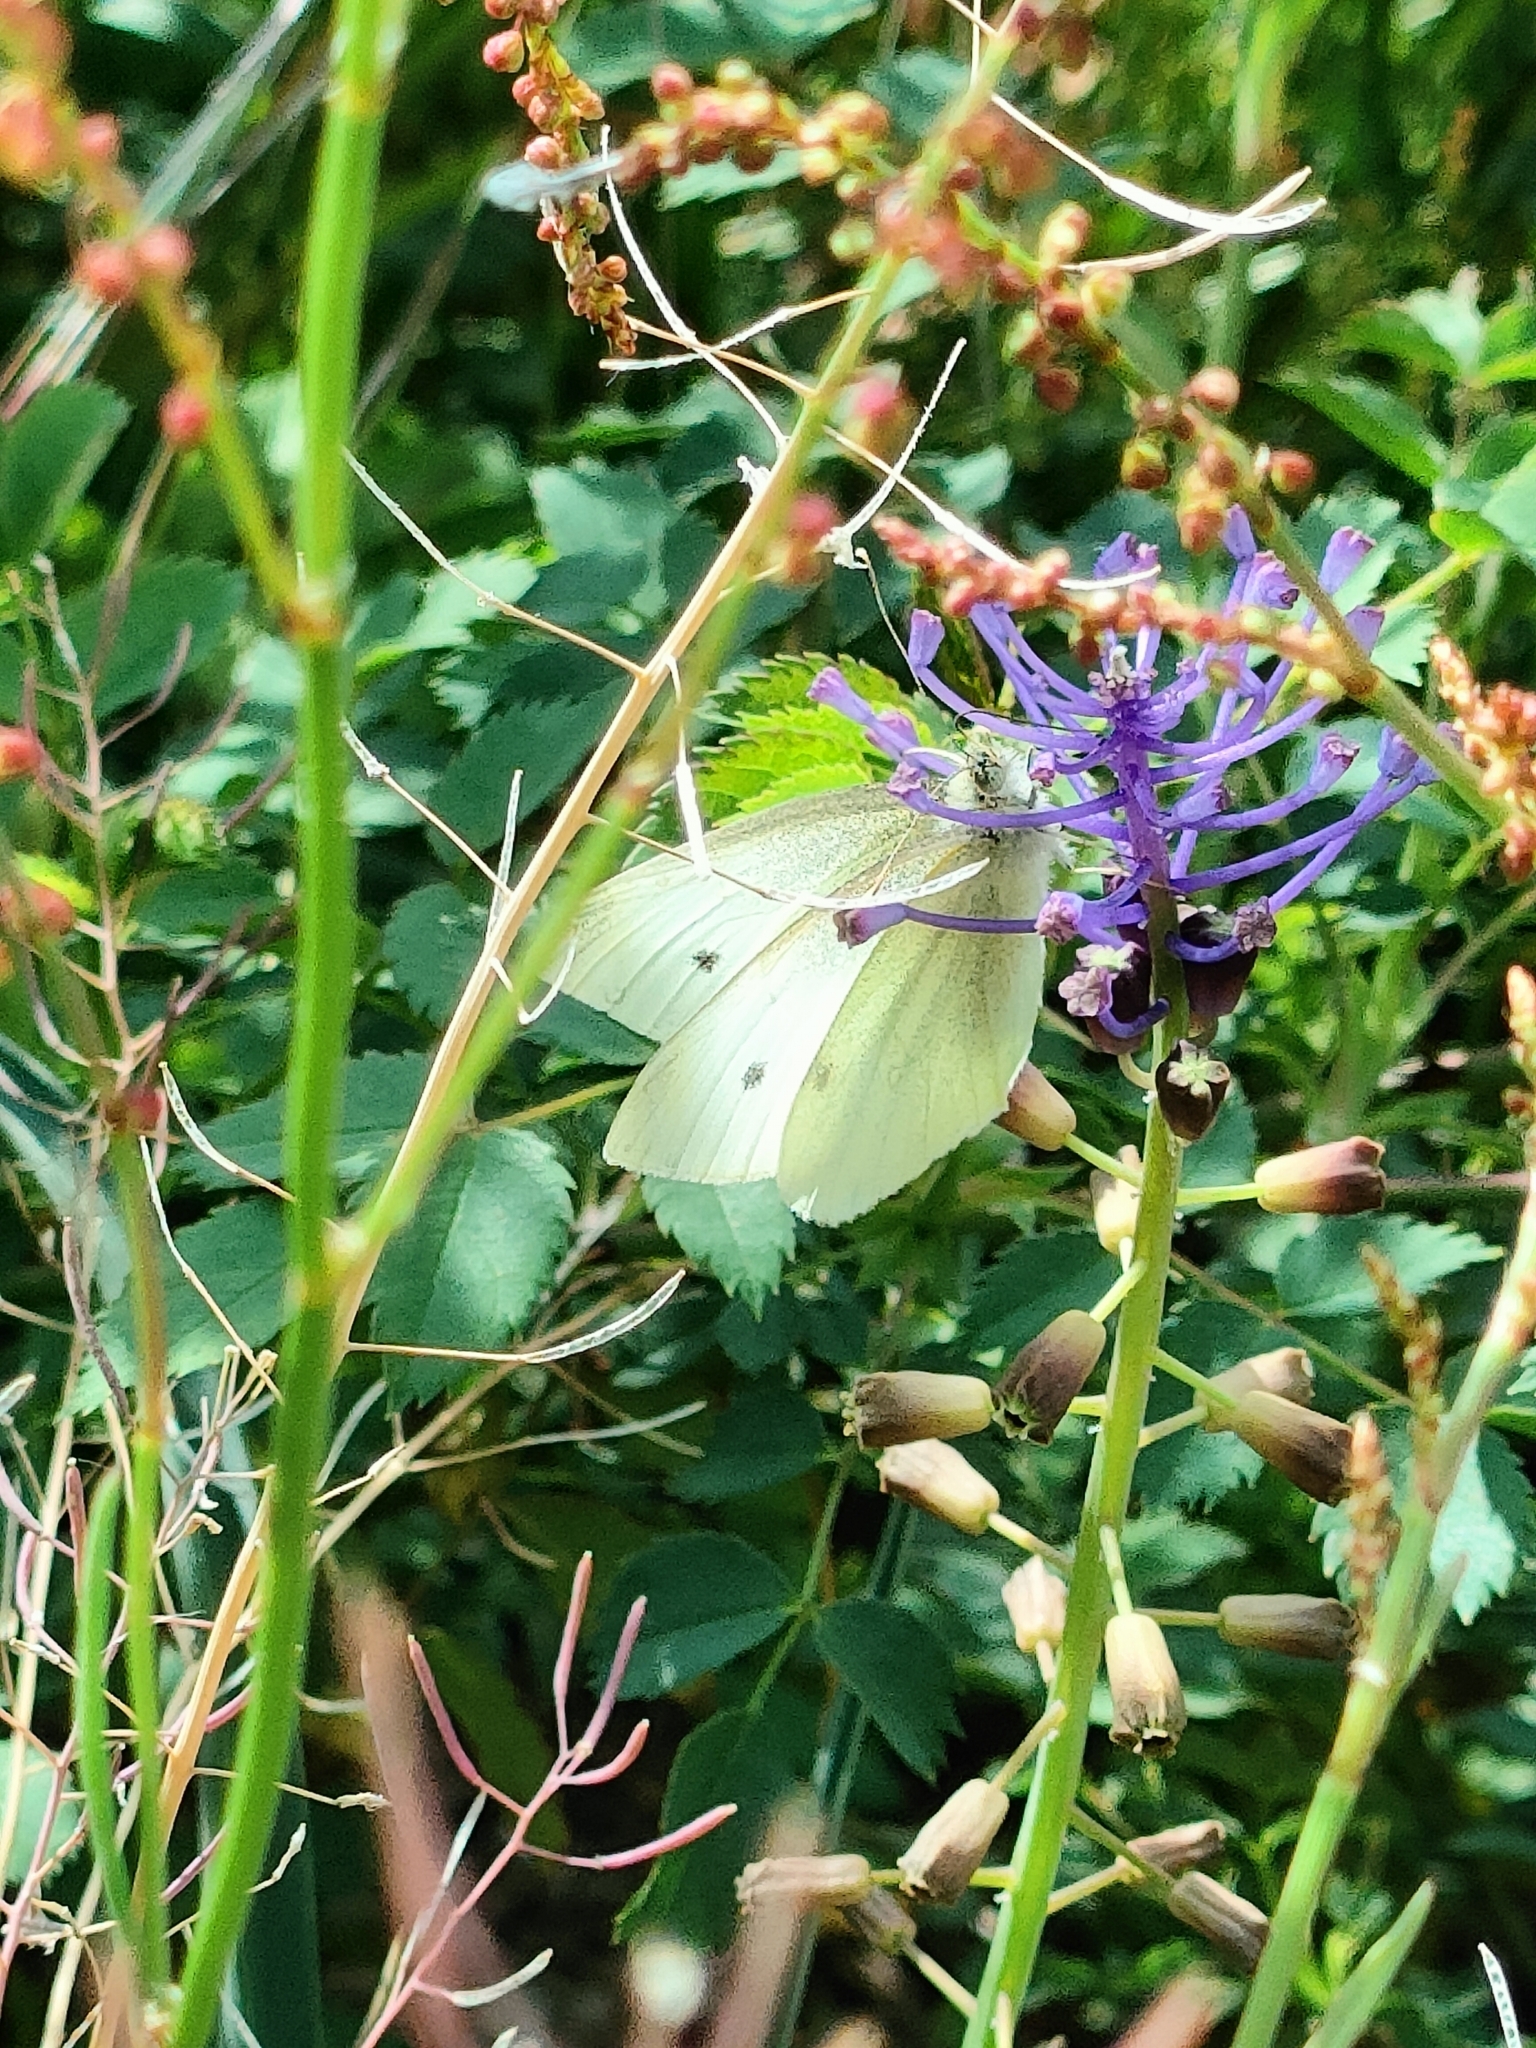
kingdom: Animalia
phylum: Arthropoda
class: Insecta
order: Lepidoptera
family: Pieridae
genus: Pieris
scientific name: Pieris rapae
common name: Small white
